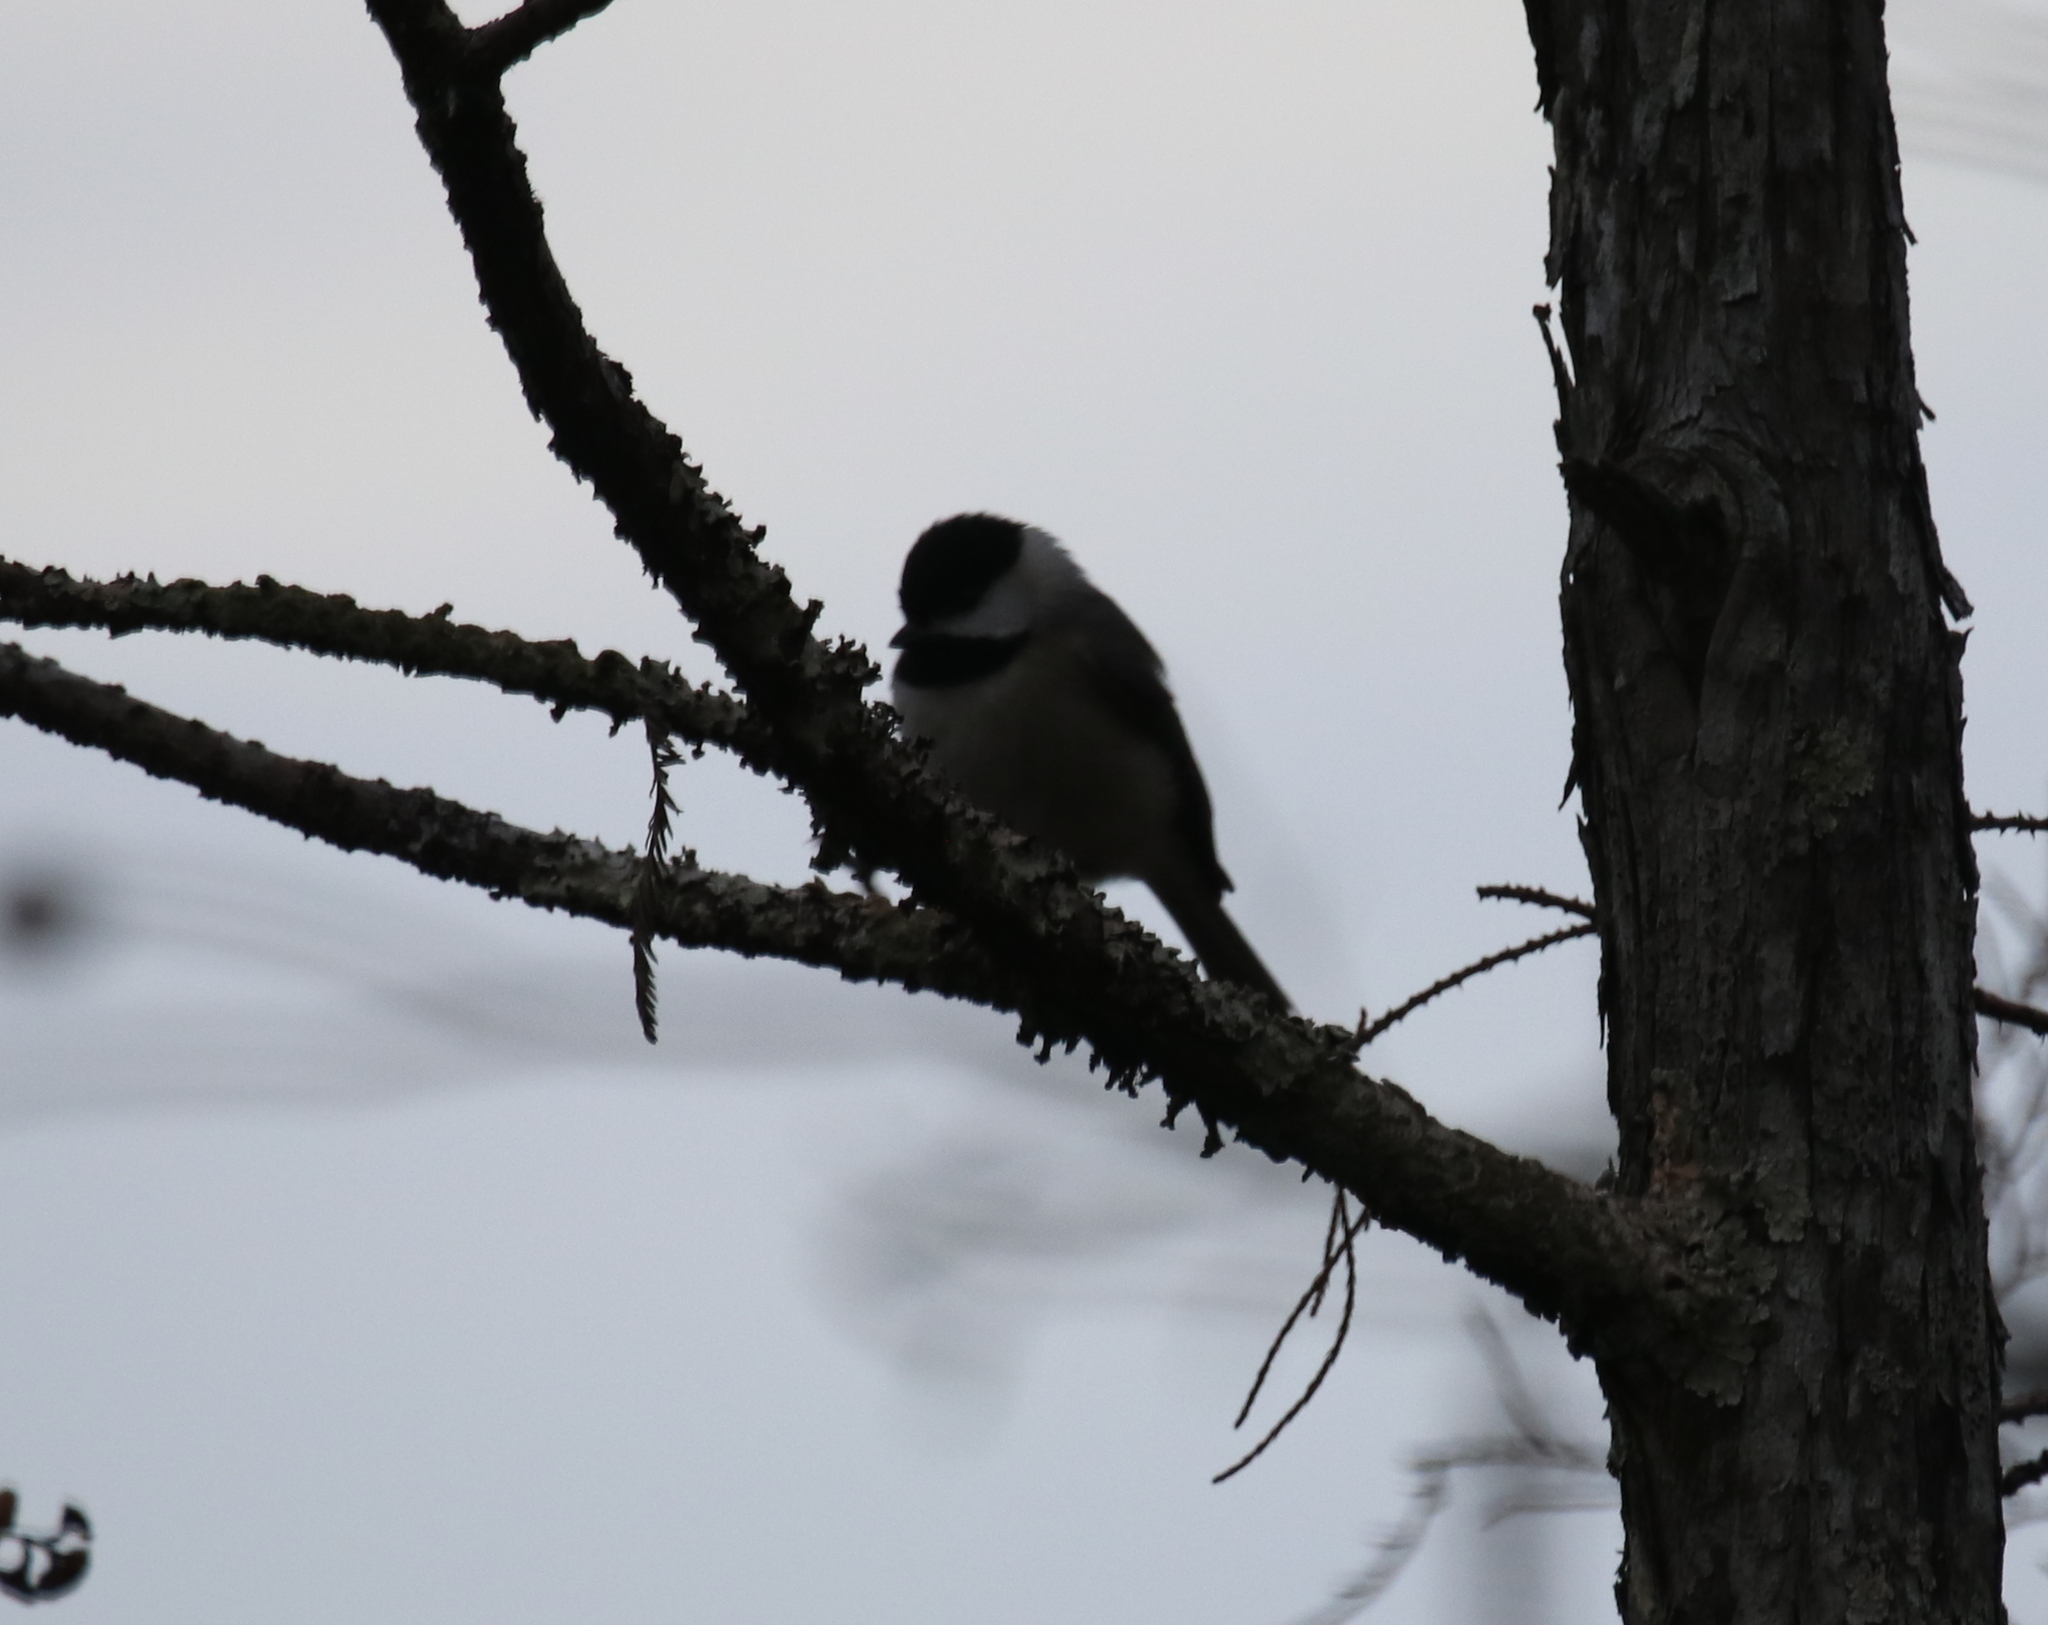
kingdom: Animalia
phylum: Chordata
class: Aves
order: Passeriformes
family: Paridae
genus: Poecile
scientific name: Poecile carolinensis
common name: Carolina chickadee
